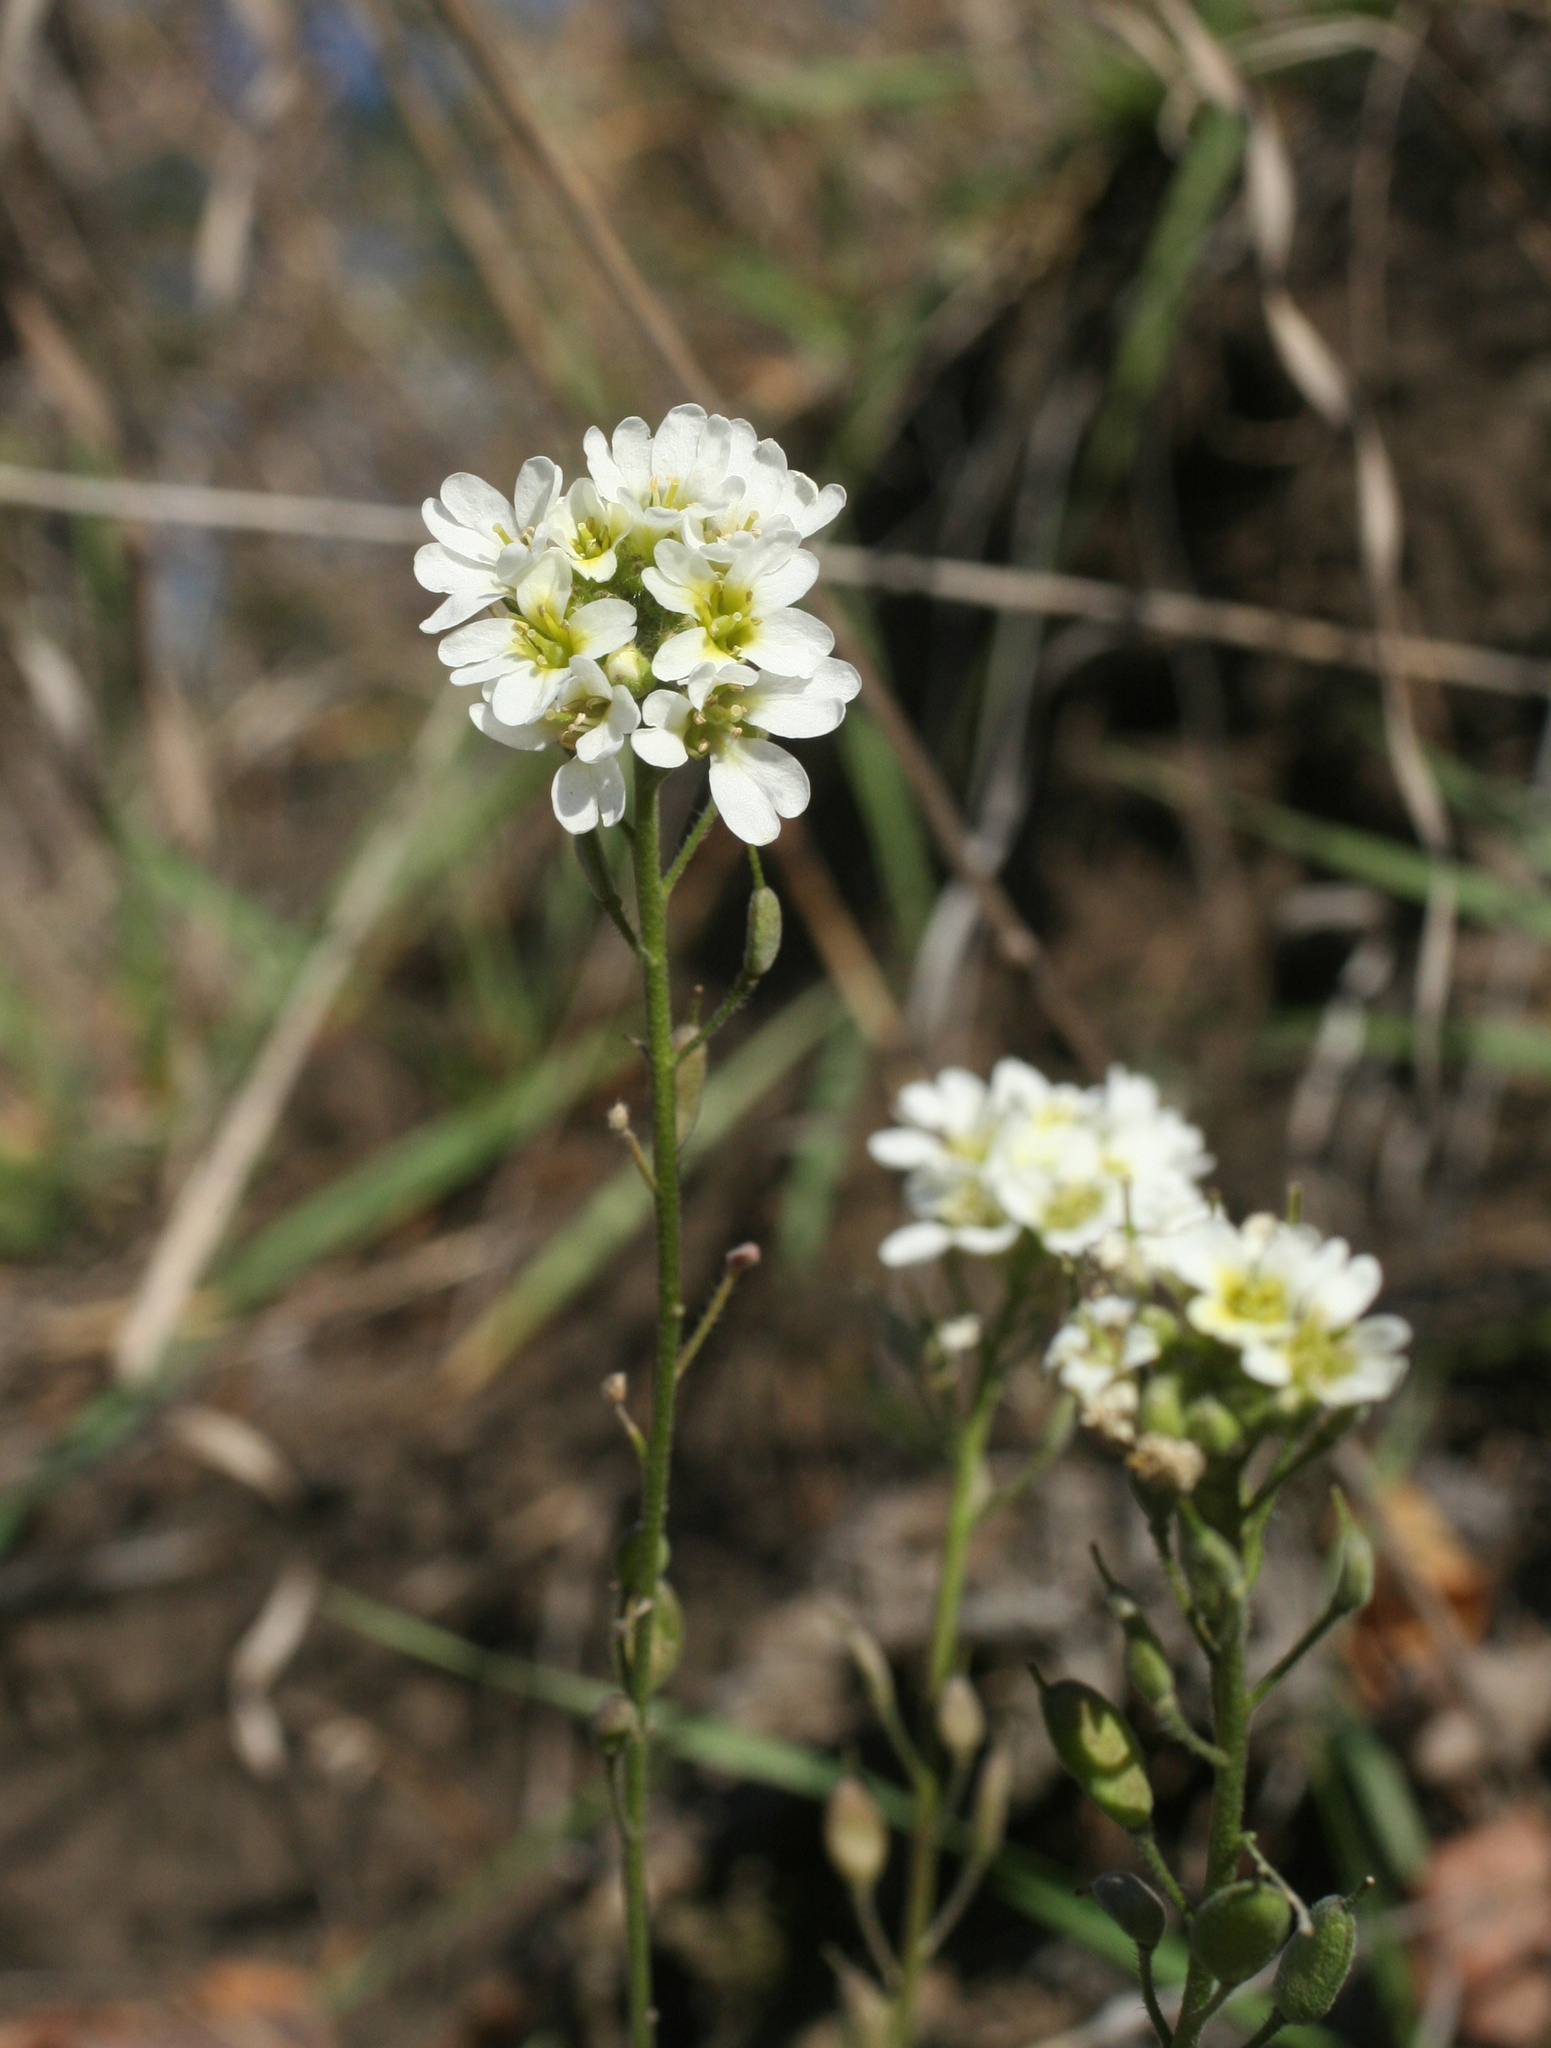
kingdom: Plantae
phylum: Tracheophyta
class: Magnoliopsida
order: Brassicales
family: Brassicaceae
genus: Berteroa
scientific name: Berteroa incana
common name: Hoary alison
